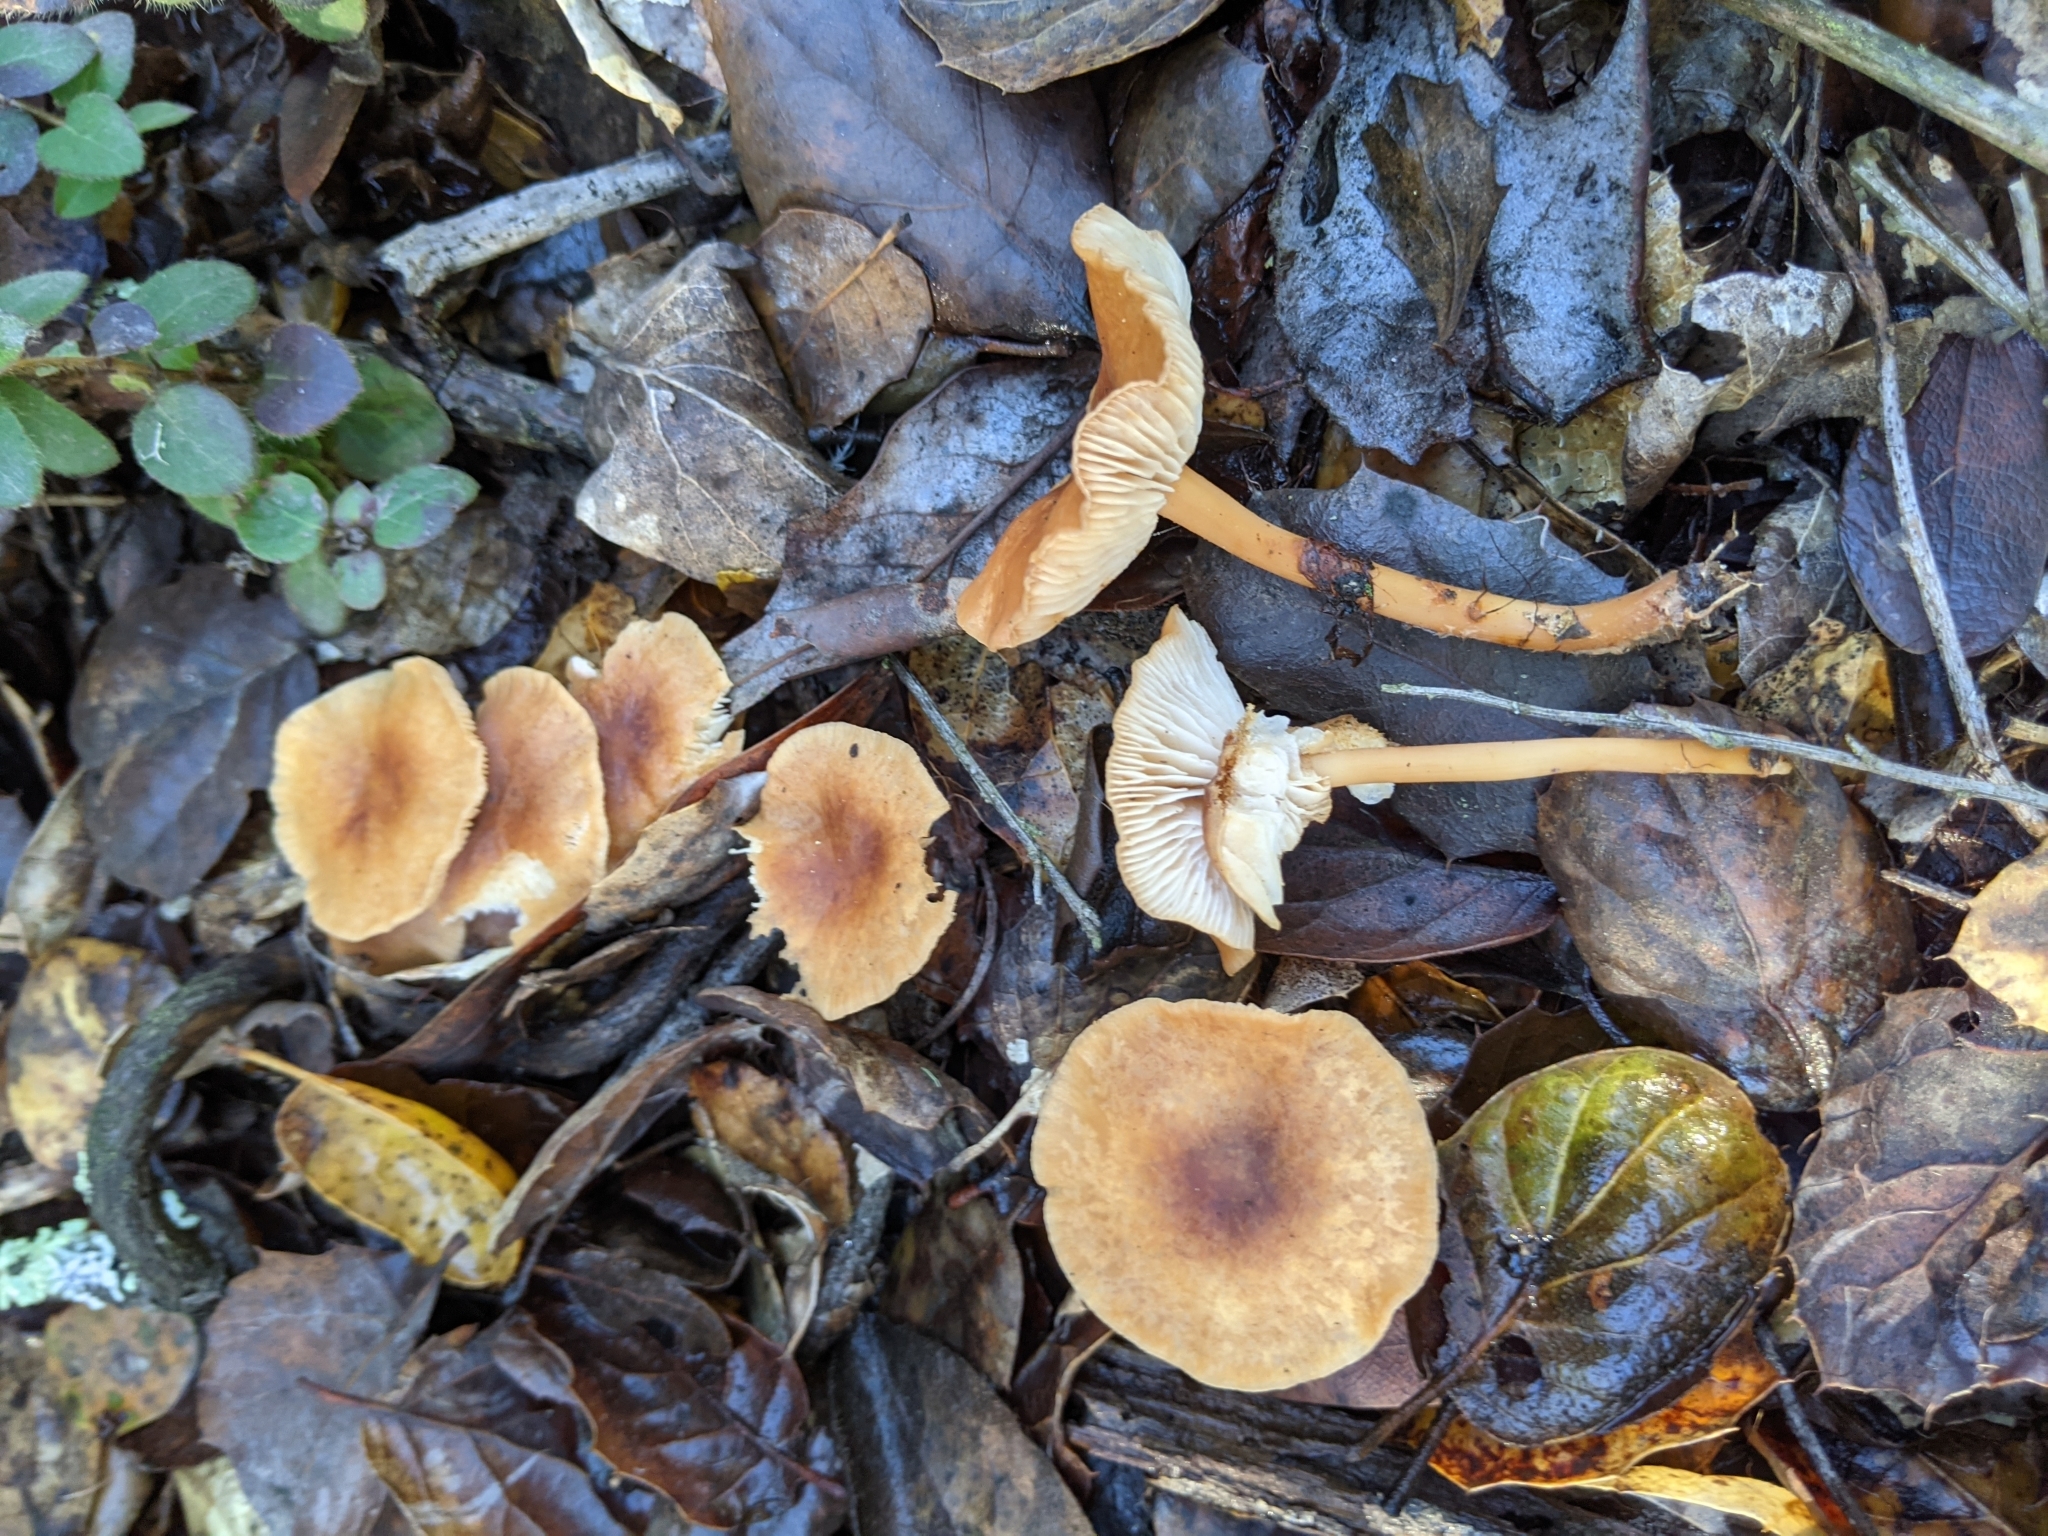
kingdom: Fungi
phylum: Basidiomycota
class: Agaricomycetes
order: Agaricales
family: Omphalotaceae
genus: Gymnopus
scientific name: Gymnopus dryophilus
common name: Penny top
